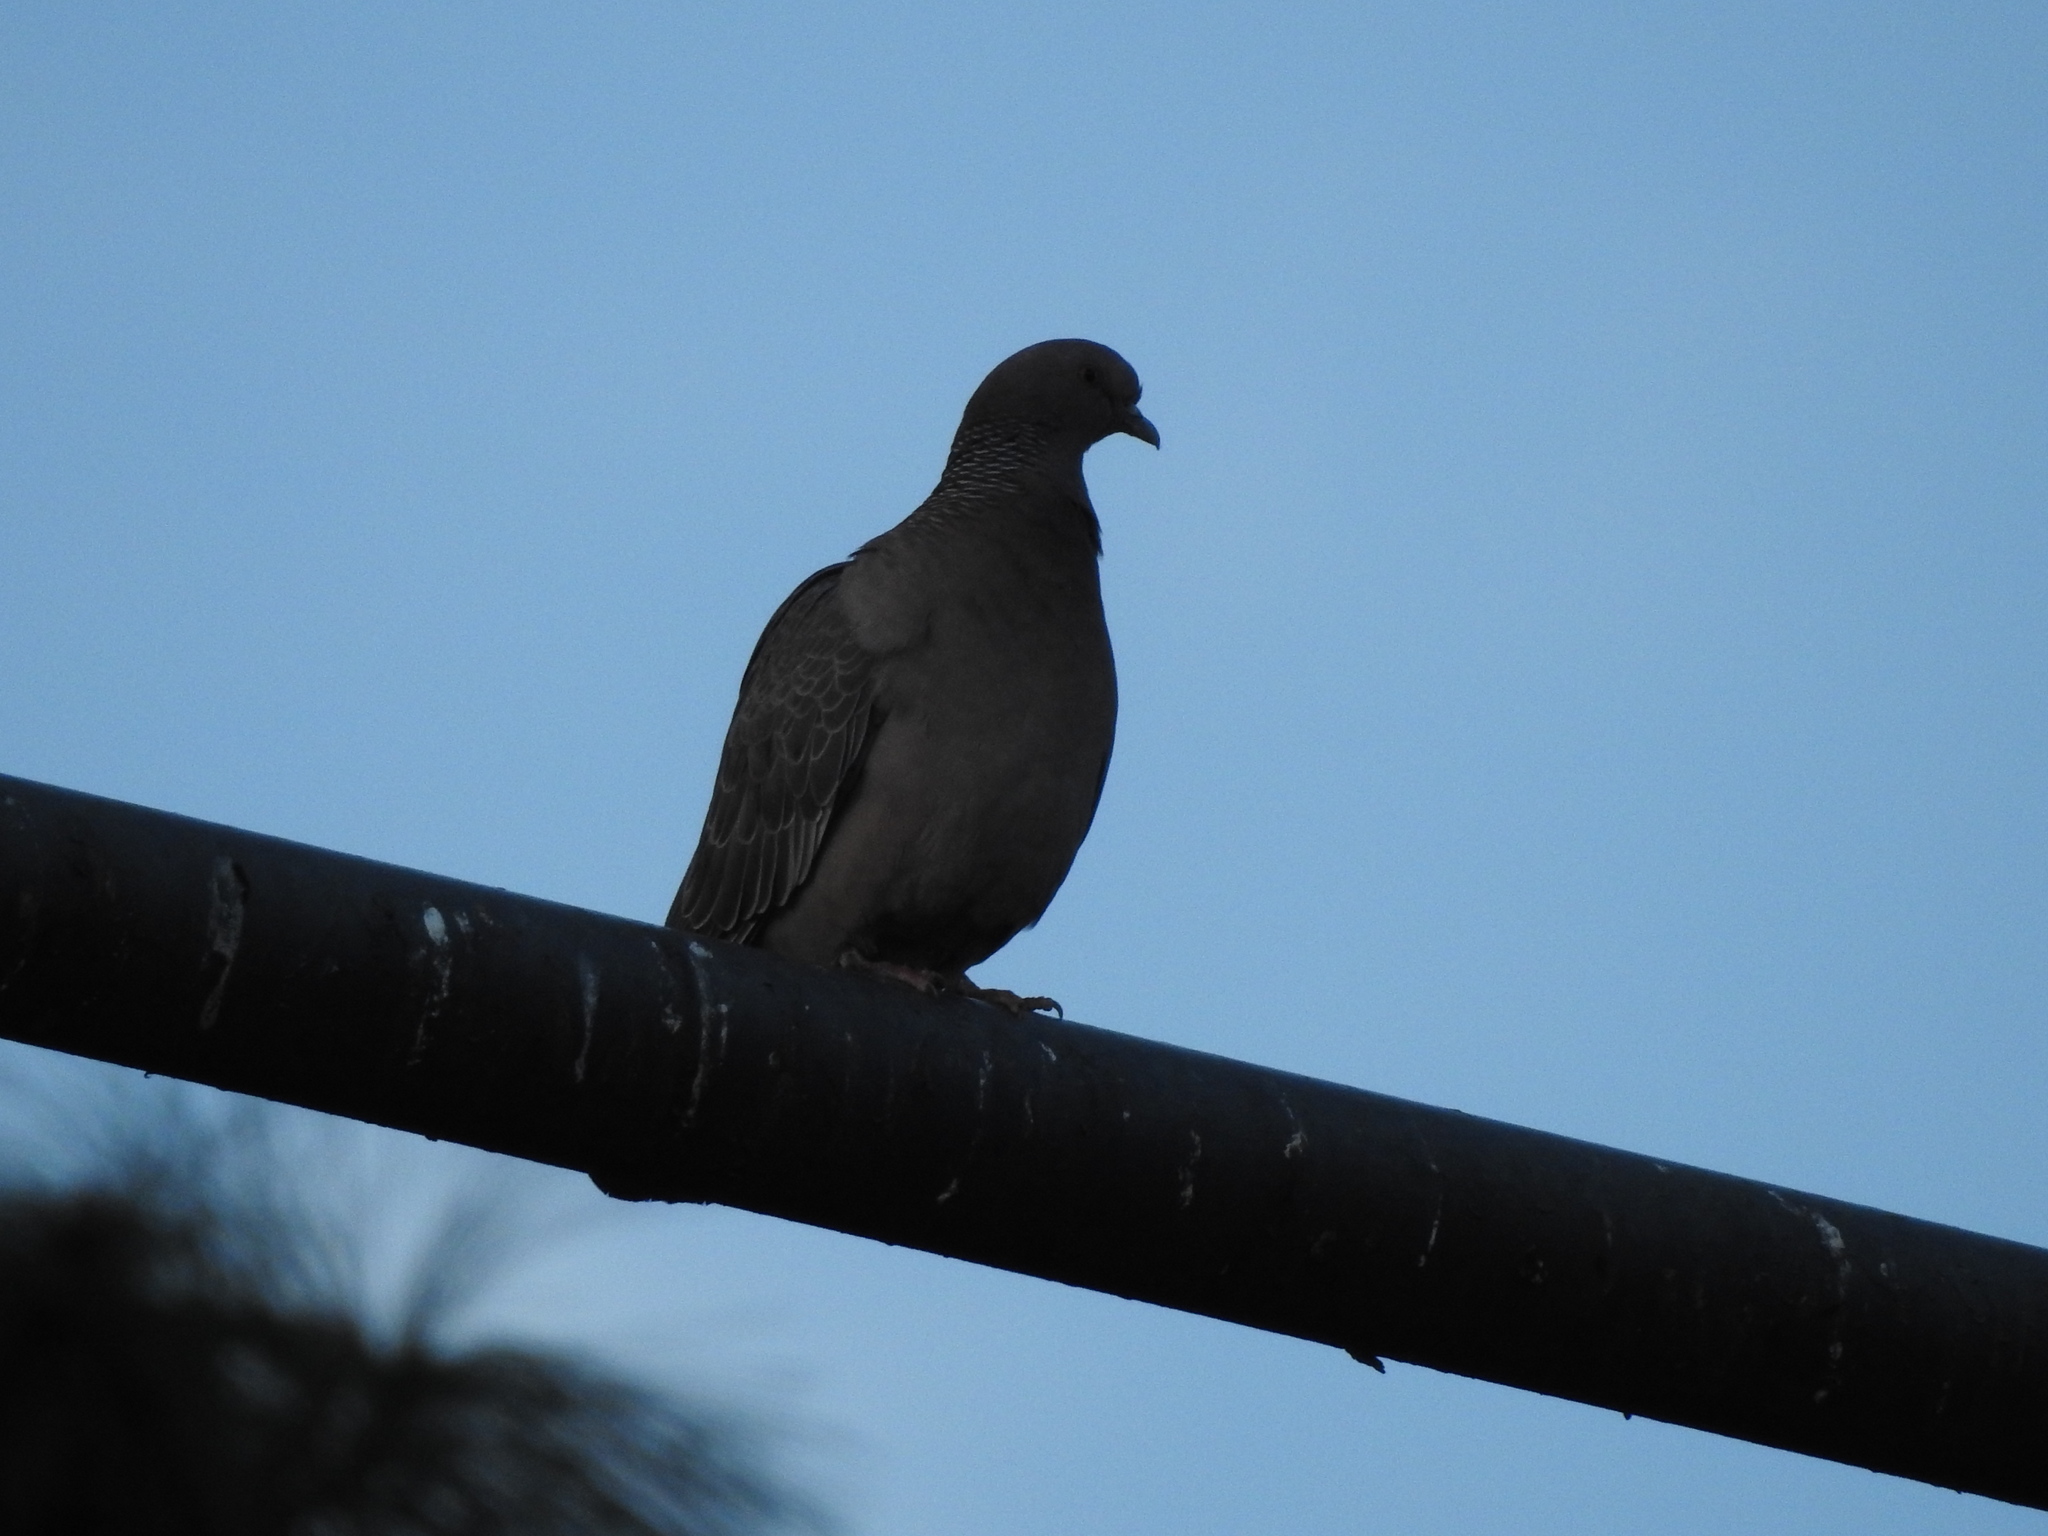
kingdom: Animalia
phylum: Chordata
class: Aves
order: Columbiformes
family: Columbidae
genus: Patagioenas
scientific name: Patagioenas picazuro
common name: Picazuro pigeon
